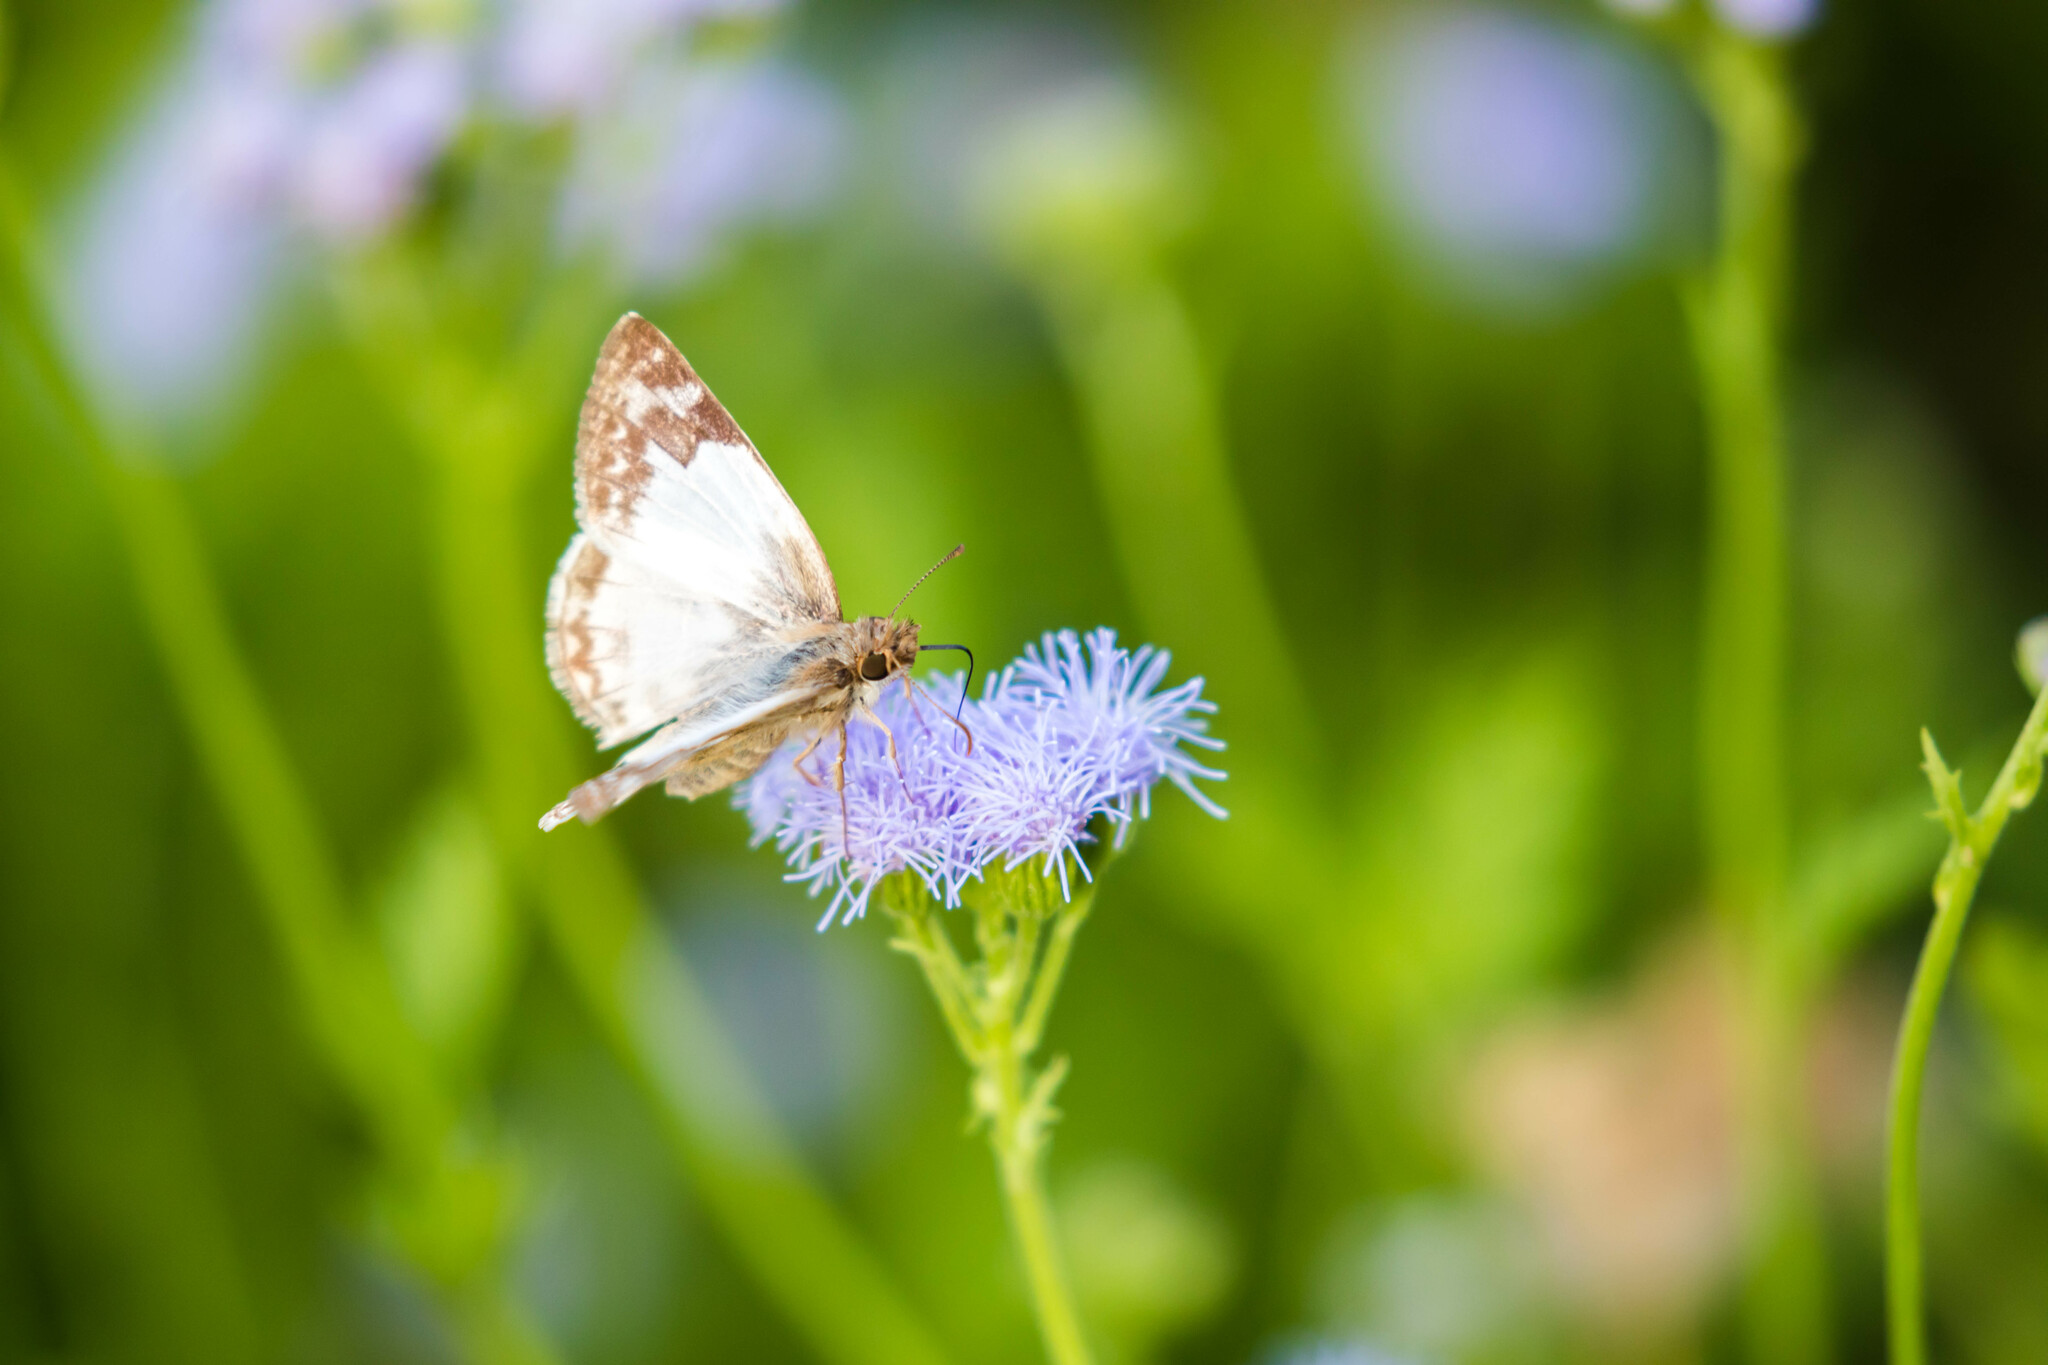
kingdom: Animalia
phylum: Arthropoda
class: Insecta
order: Lepidoptera
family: Hesperiidae
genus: Heliopetes
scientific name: Heliopetes laviana
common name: Laviana white-skipper
